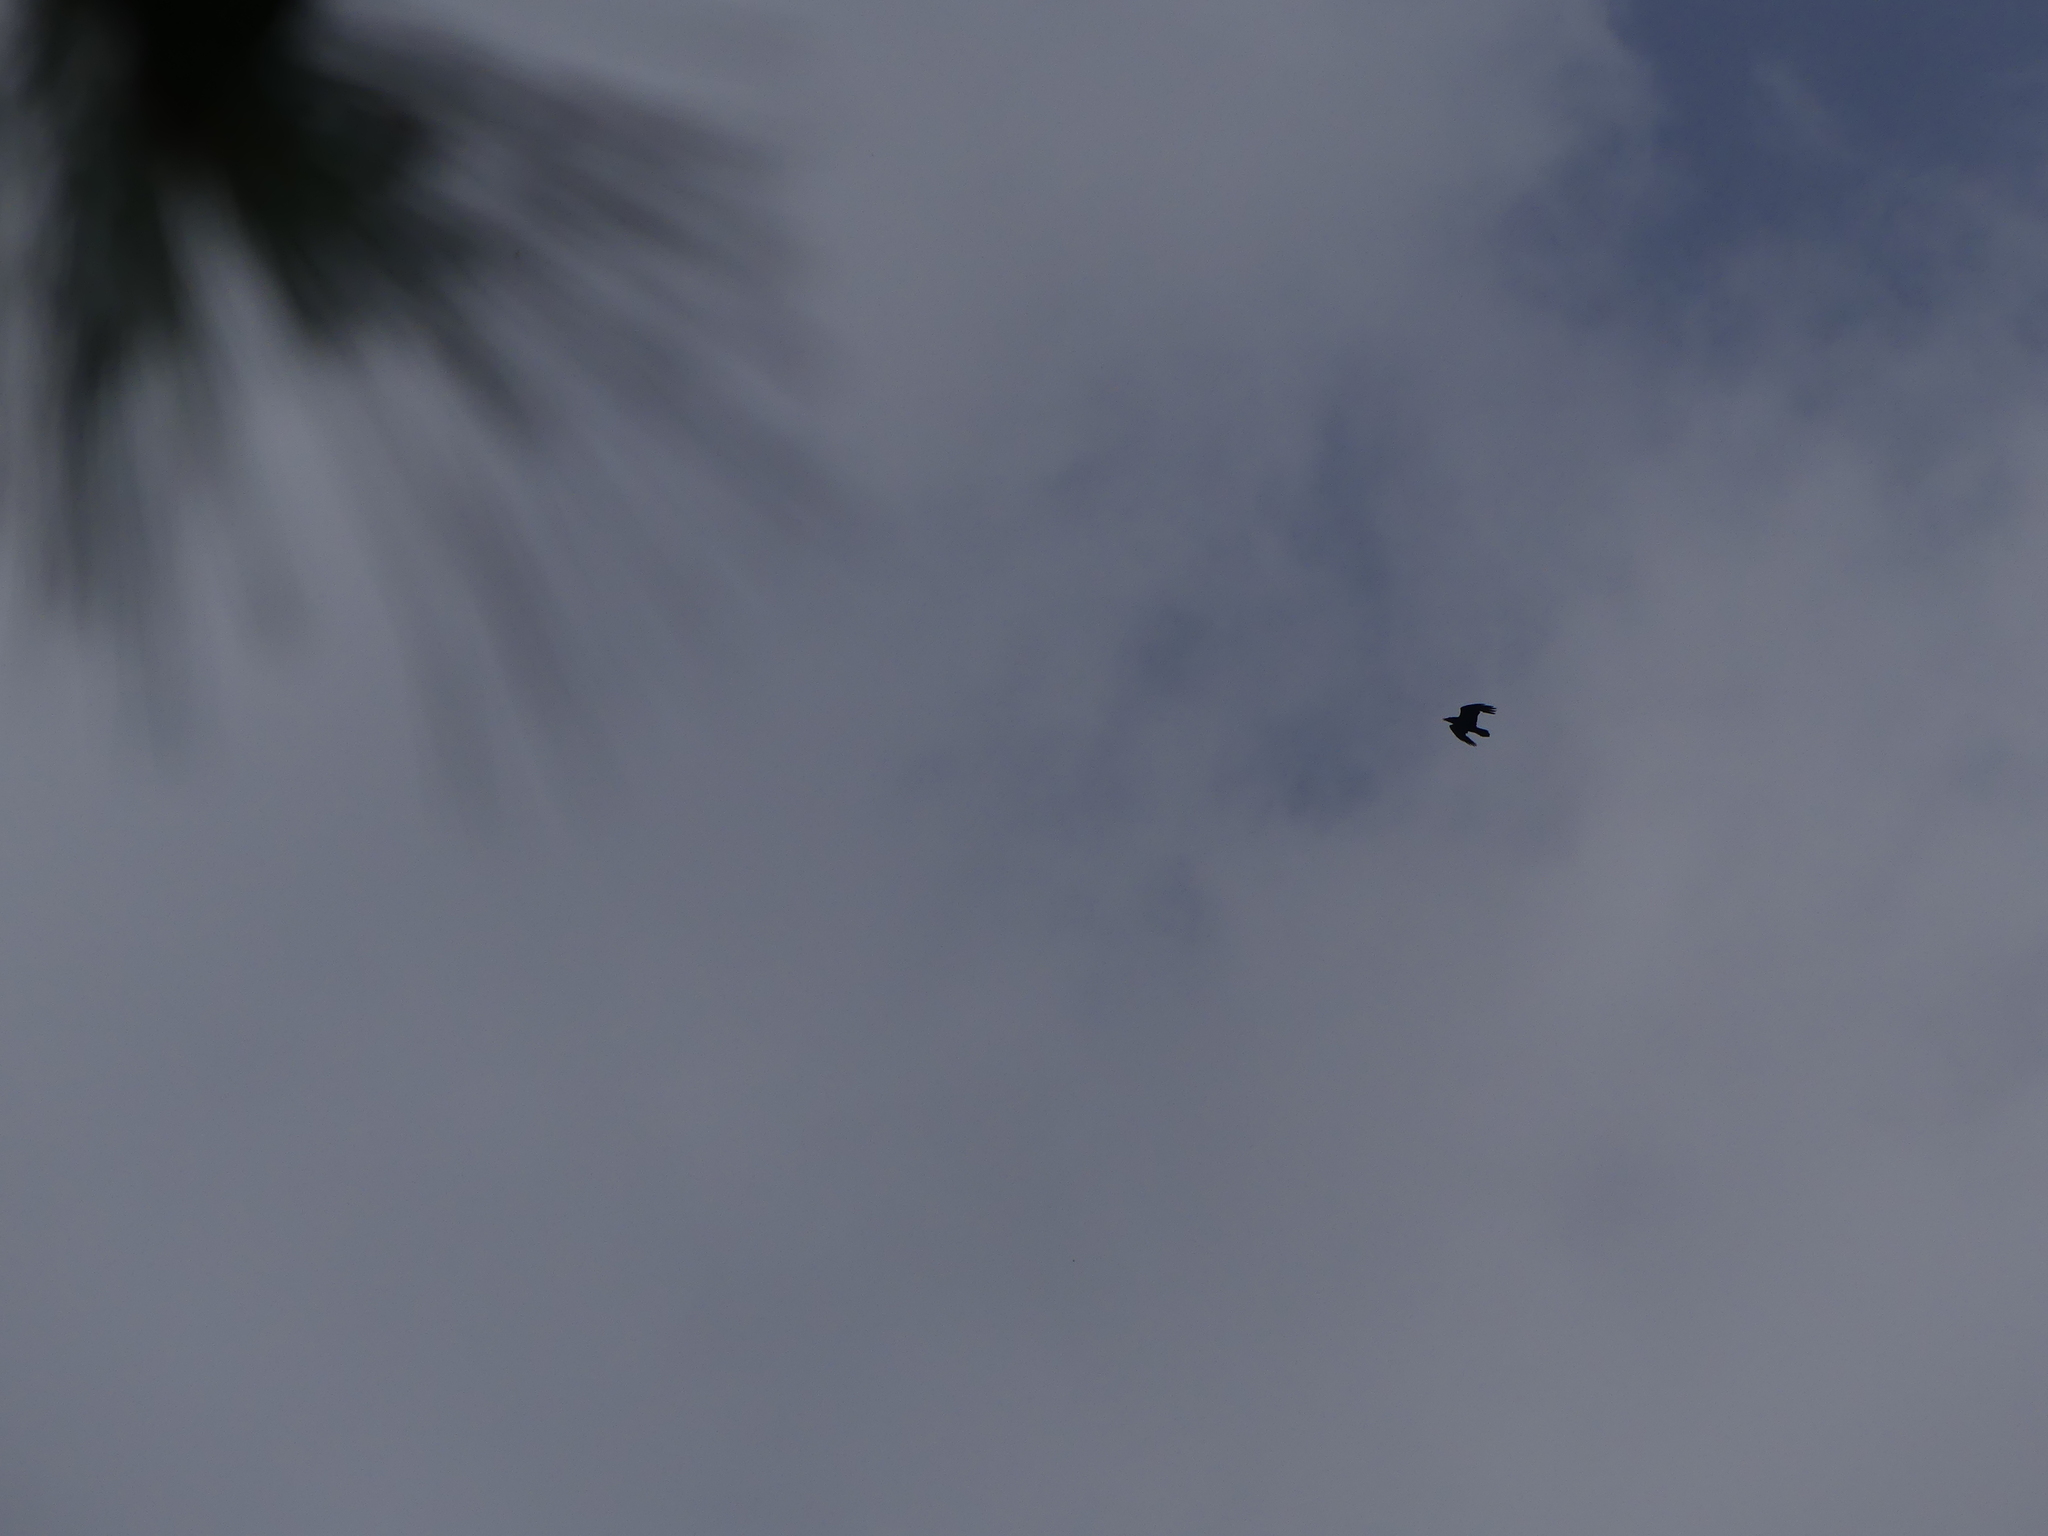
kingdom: Animalia
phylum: Chordata
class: Aves
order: Passeriformes
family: Corvidae
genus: Corvus
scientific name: Corvus corax
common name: Common raven
